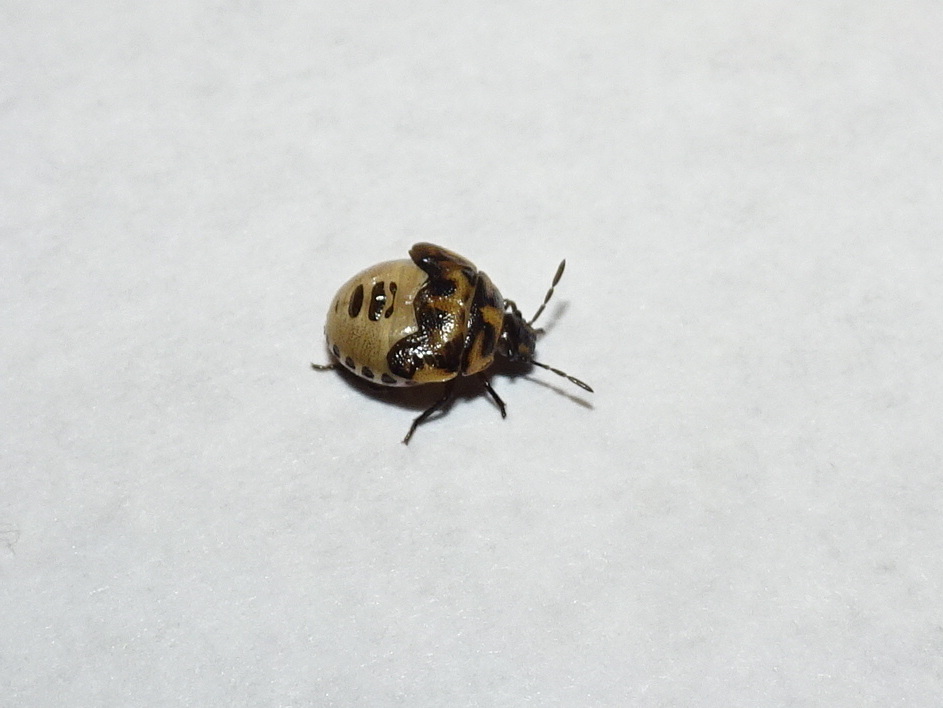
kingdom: Animalia
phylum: Arthropoda
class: Insecta
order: Hemiptera
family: Pentatomidae
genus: Cosmopepla
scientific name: Cosmopepla lintneriana
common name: Twice-stabbed stink bug
